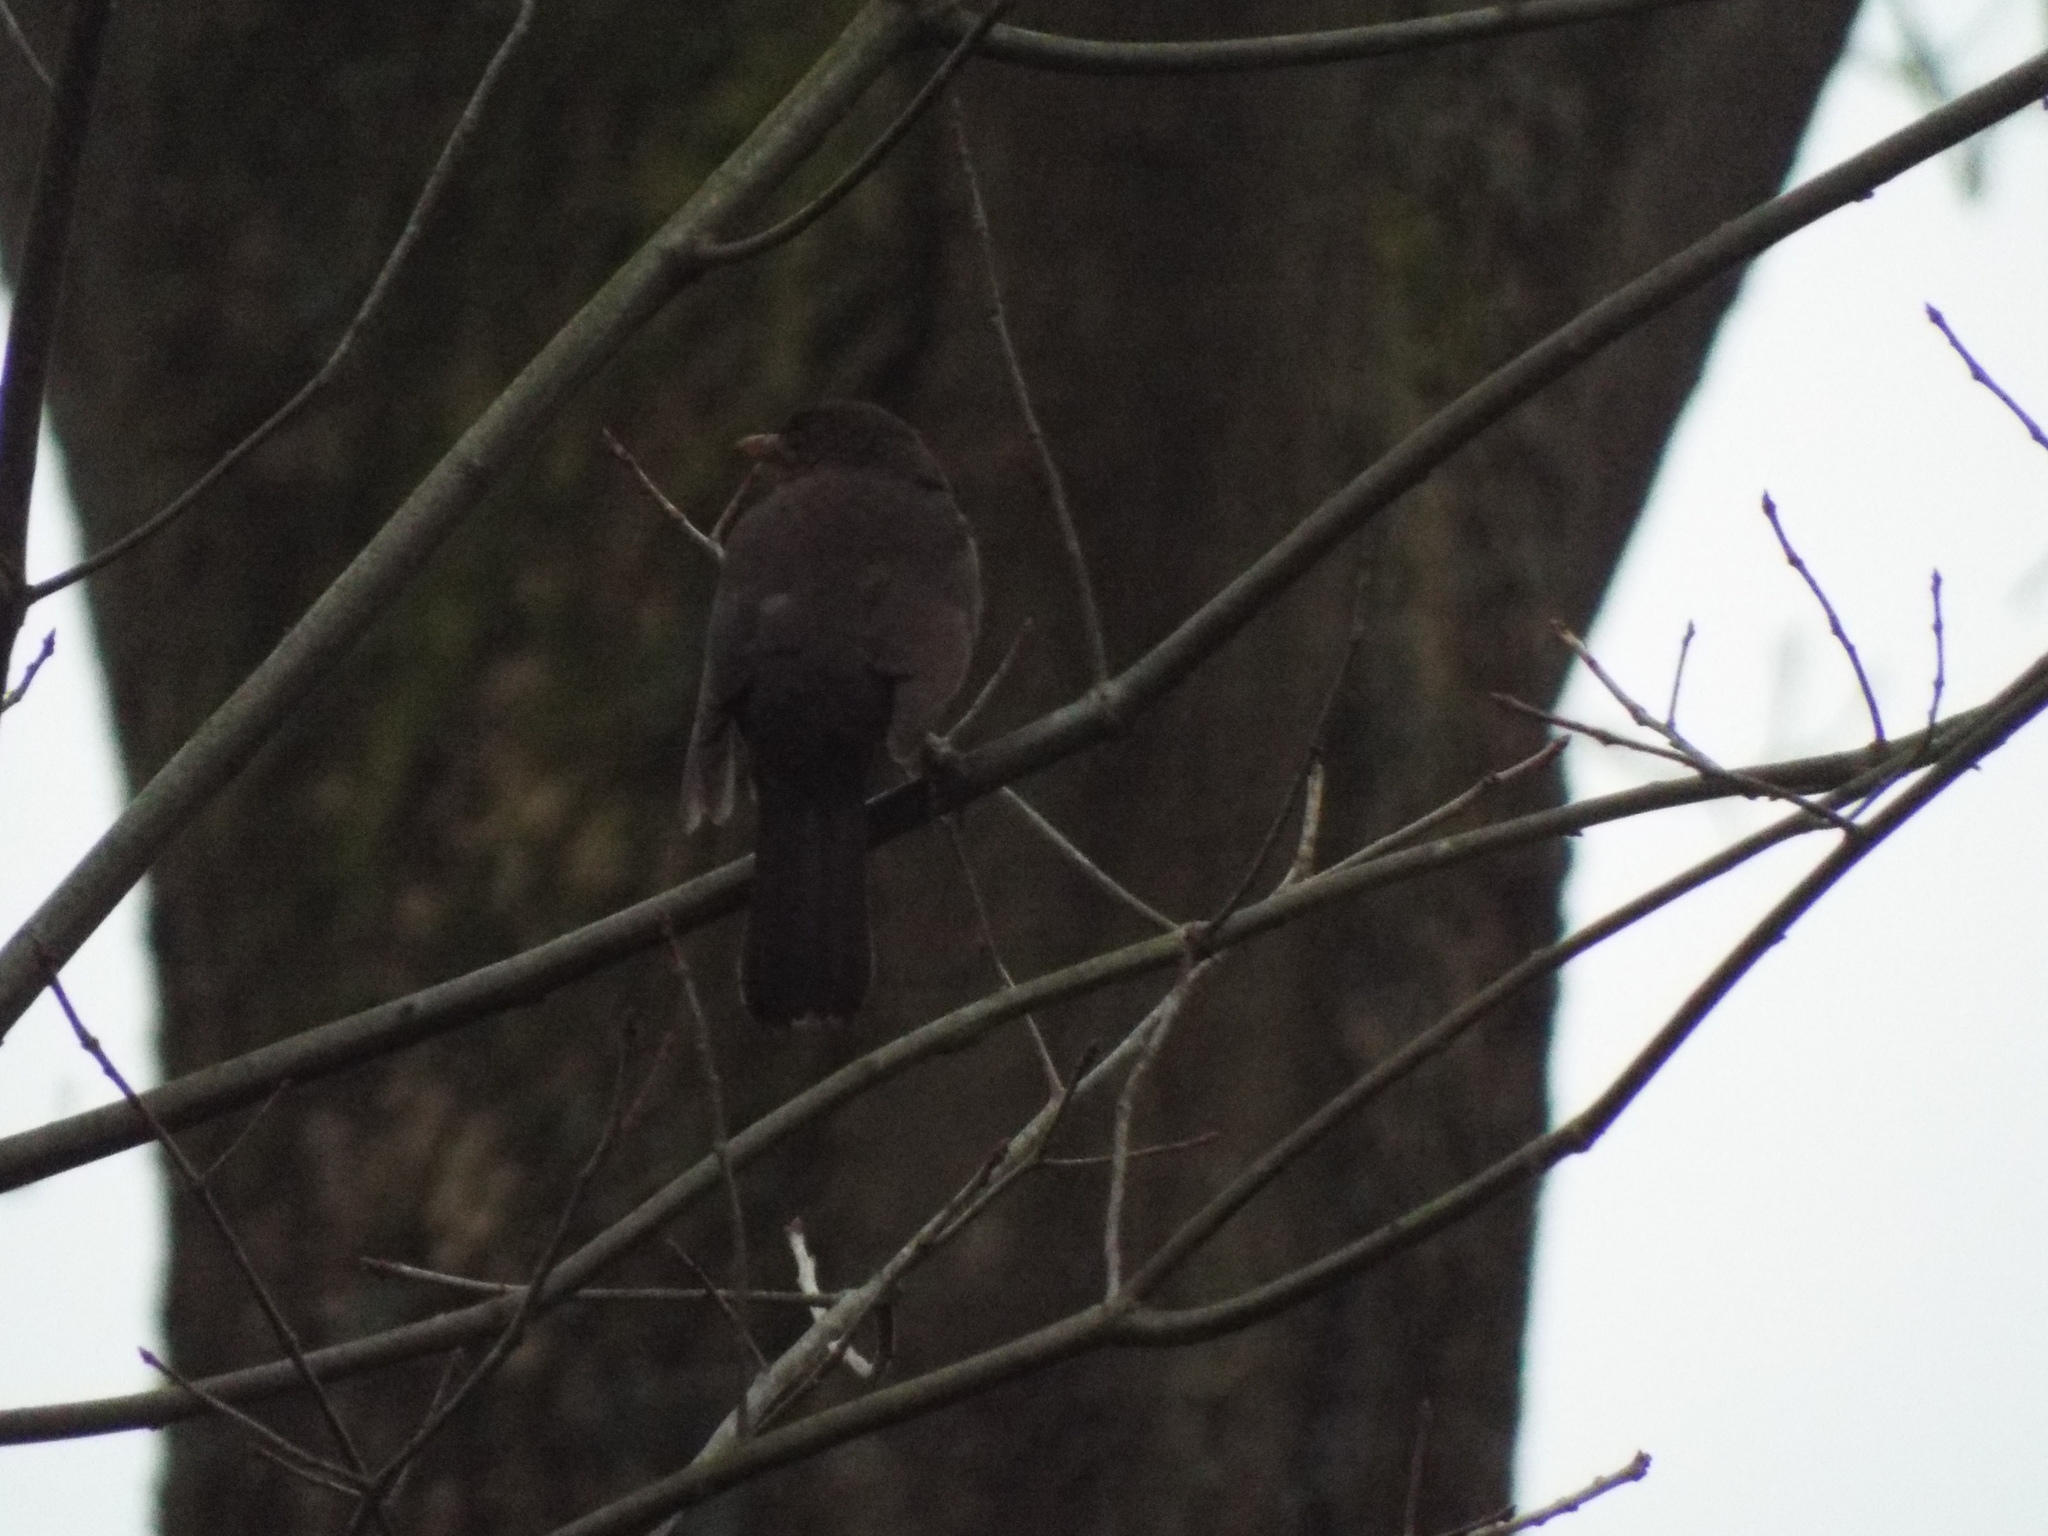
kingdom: Animalia
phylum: Chordata
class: Aves
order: Passeriformes
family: Turdidae
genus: Turdus
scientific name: Turdus merula
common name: Common blackbird
